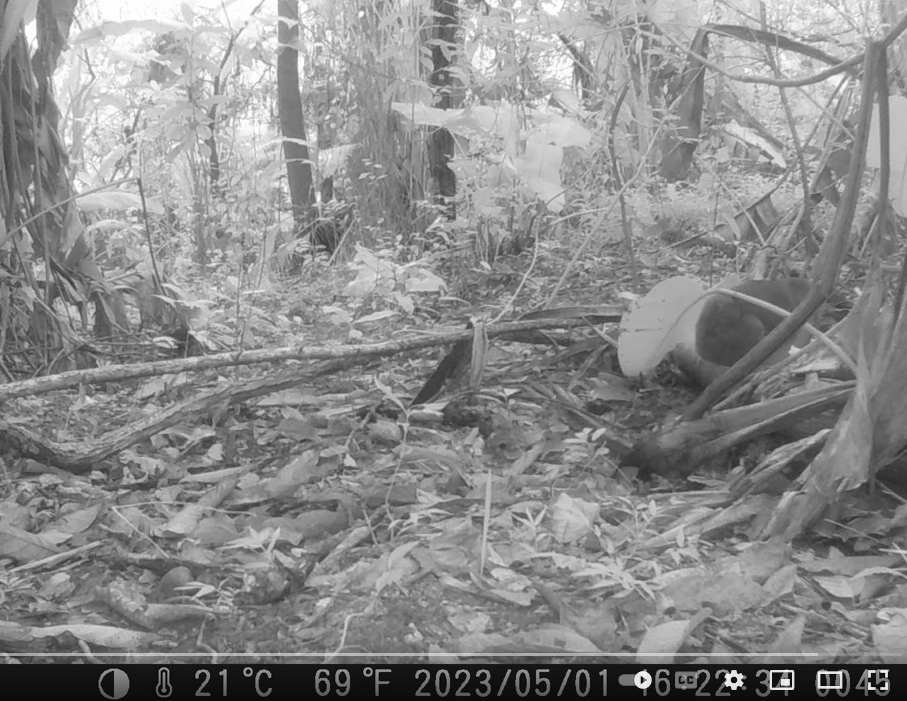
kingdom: Animalia
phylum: Chordata
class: Mammalia
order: Hyracoidea
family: Procaviidae
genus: Procavia
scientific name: Procavia capensis
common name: Rock hyrax
